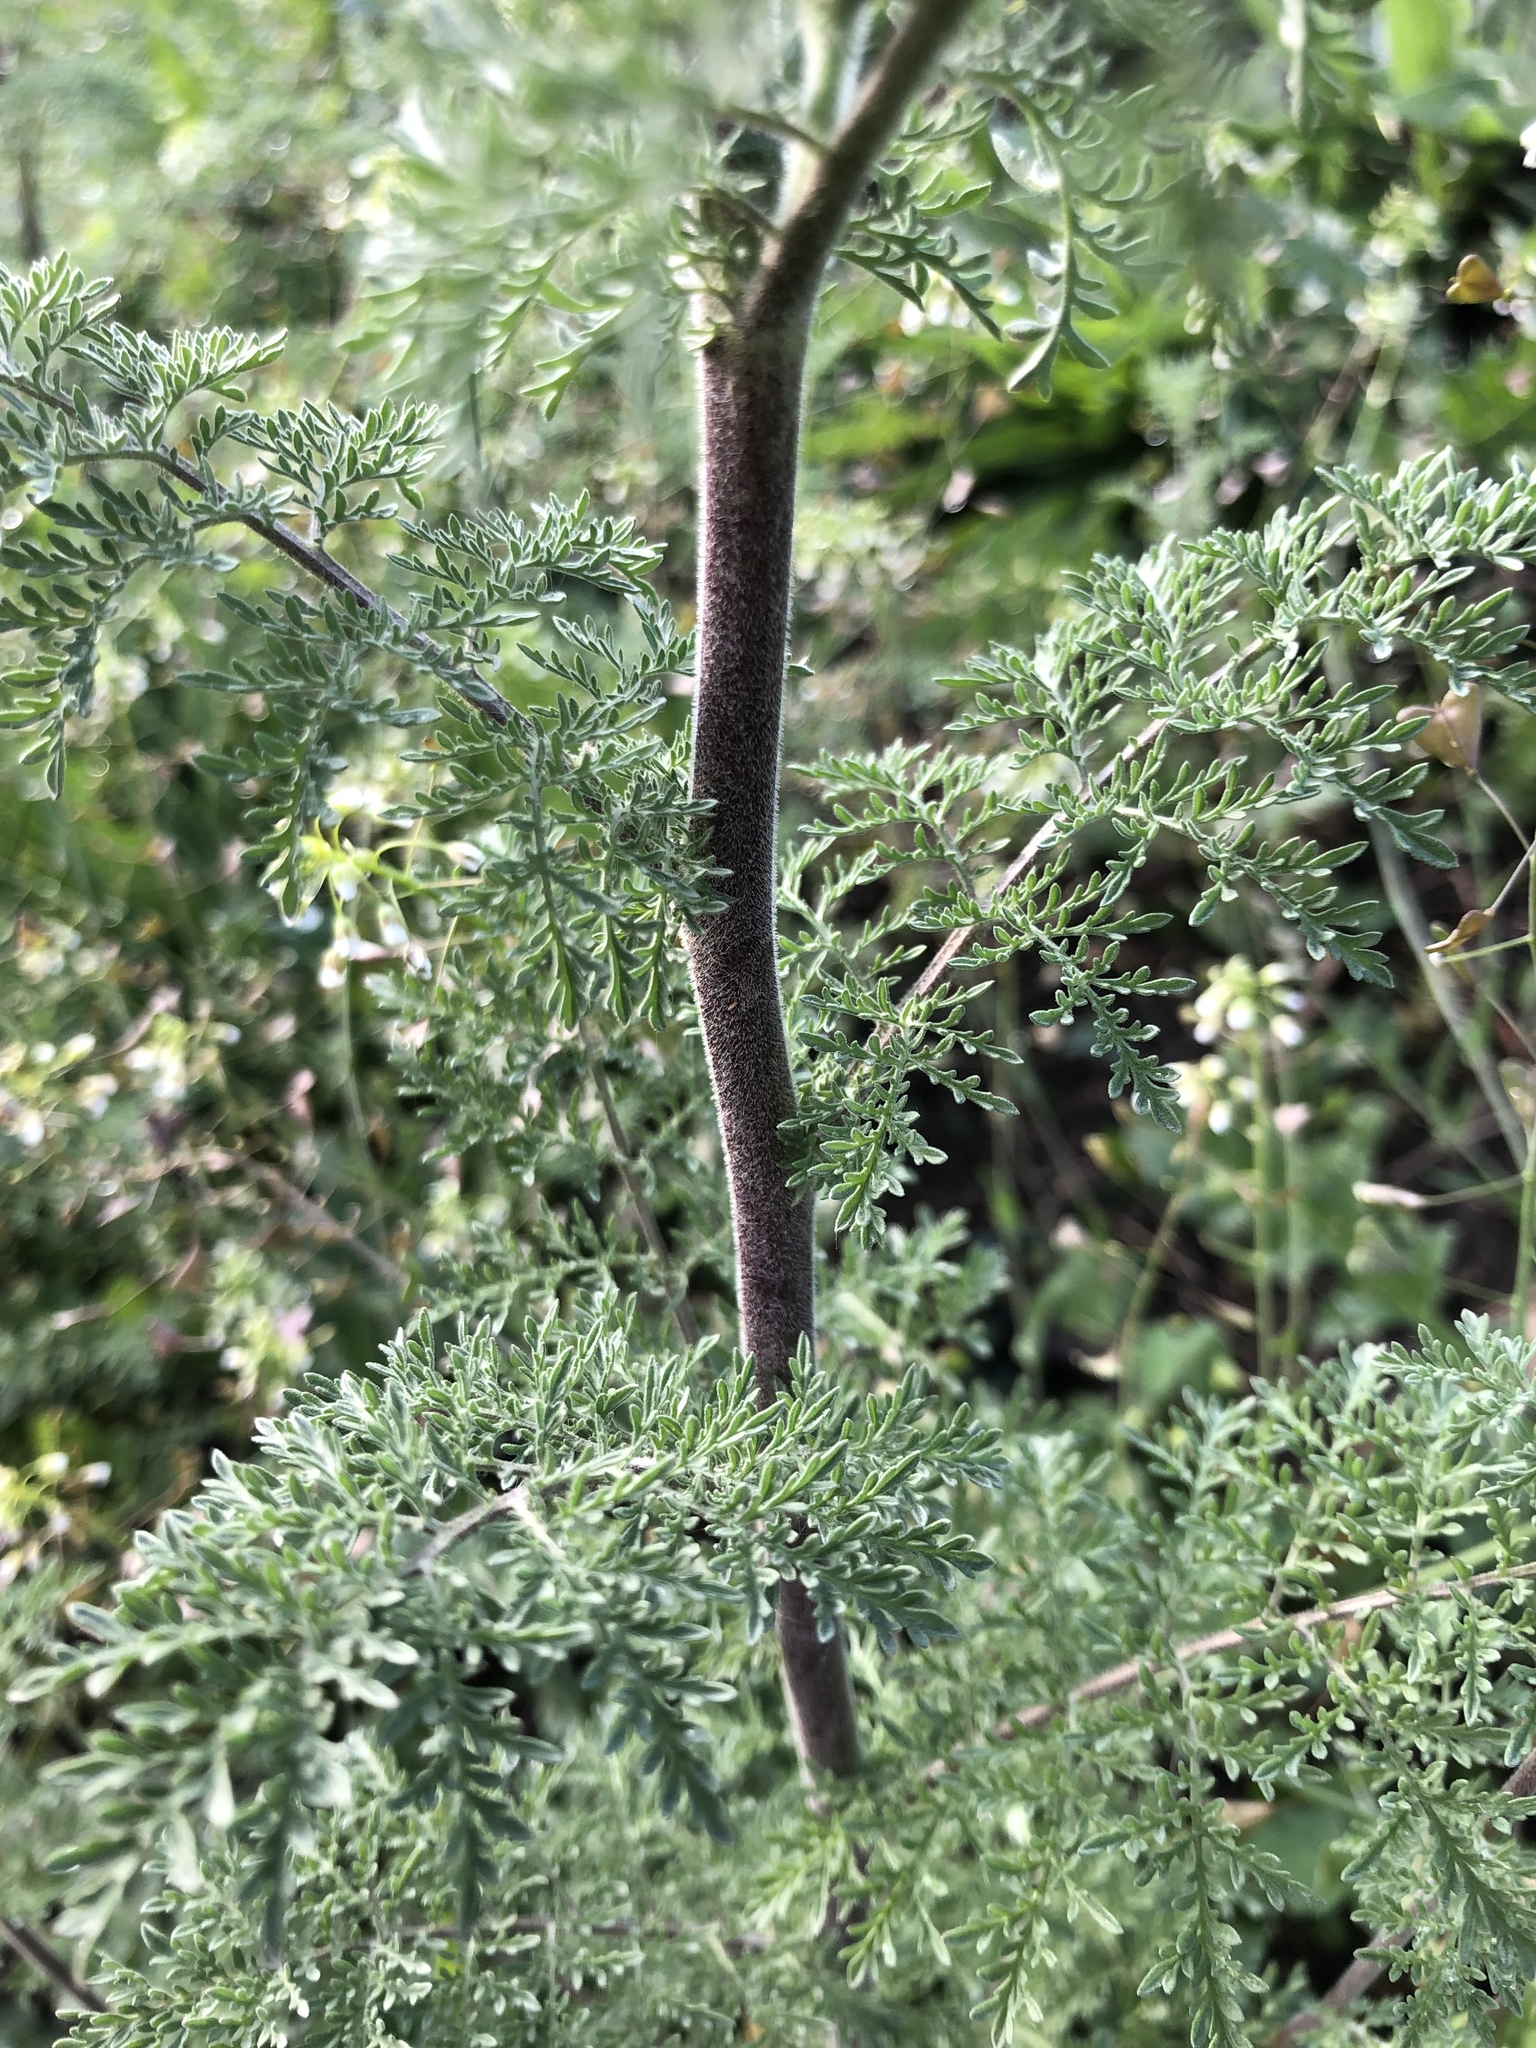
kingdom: Plantae
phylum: Tracheophyta
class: Magnoliopsida
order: Brassicales
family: Brassicaceae
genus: Descurainia
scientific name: Descurainia sophia
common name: Flixweed
